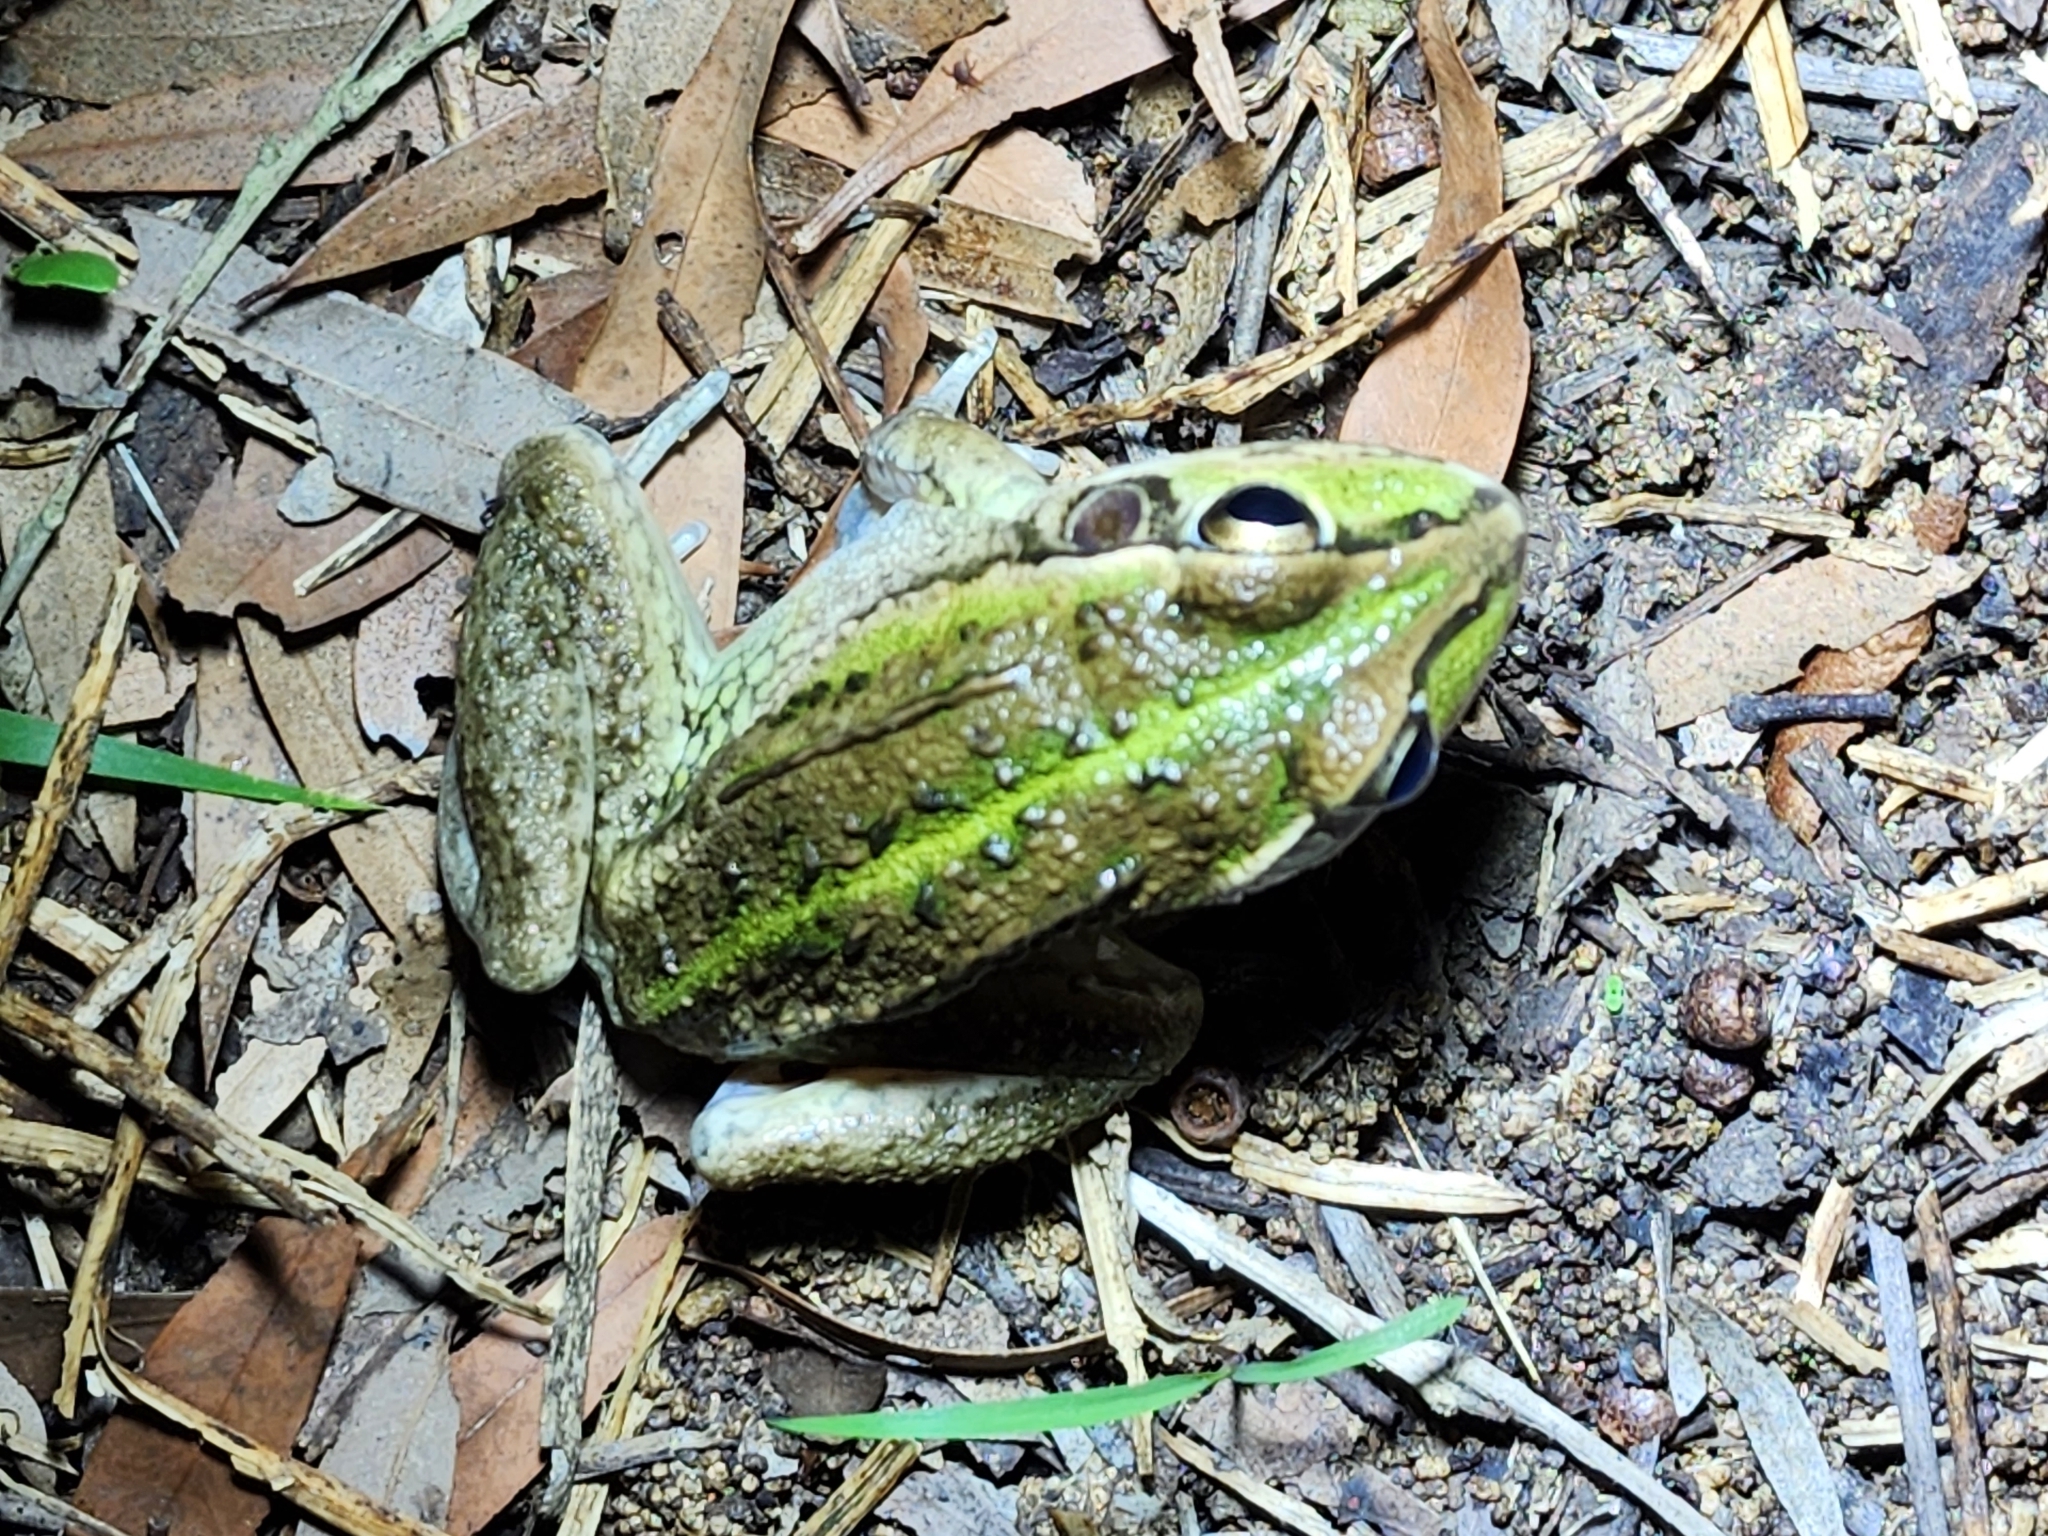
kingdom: Animalia
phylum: Chordata
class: Amphibia
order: Anura
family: Pelodryadidae
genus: Ranoidea
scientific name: Ranoidea alboguttata
